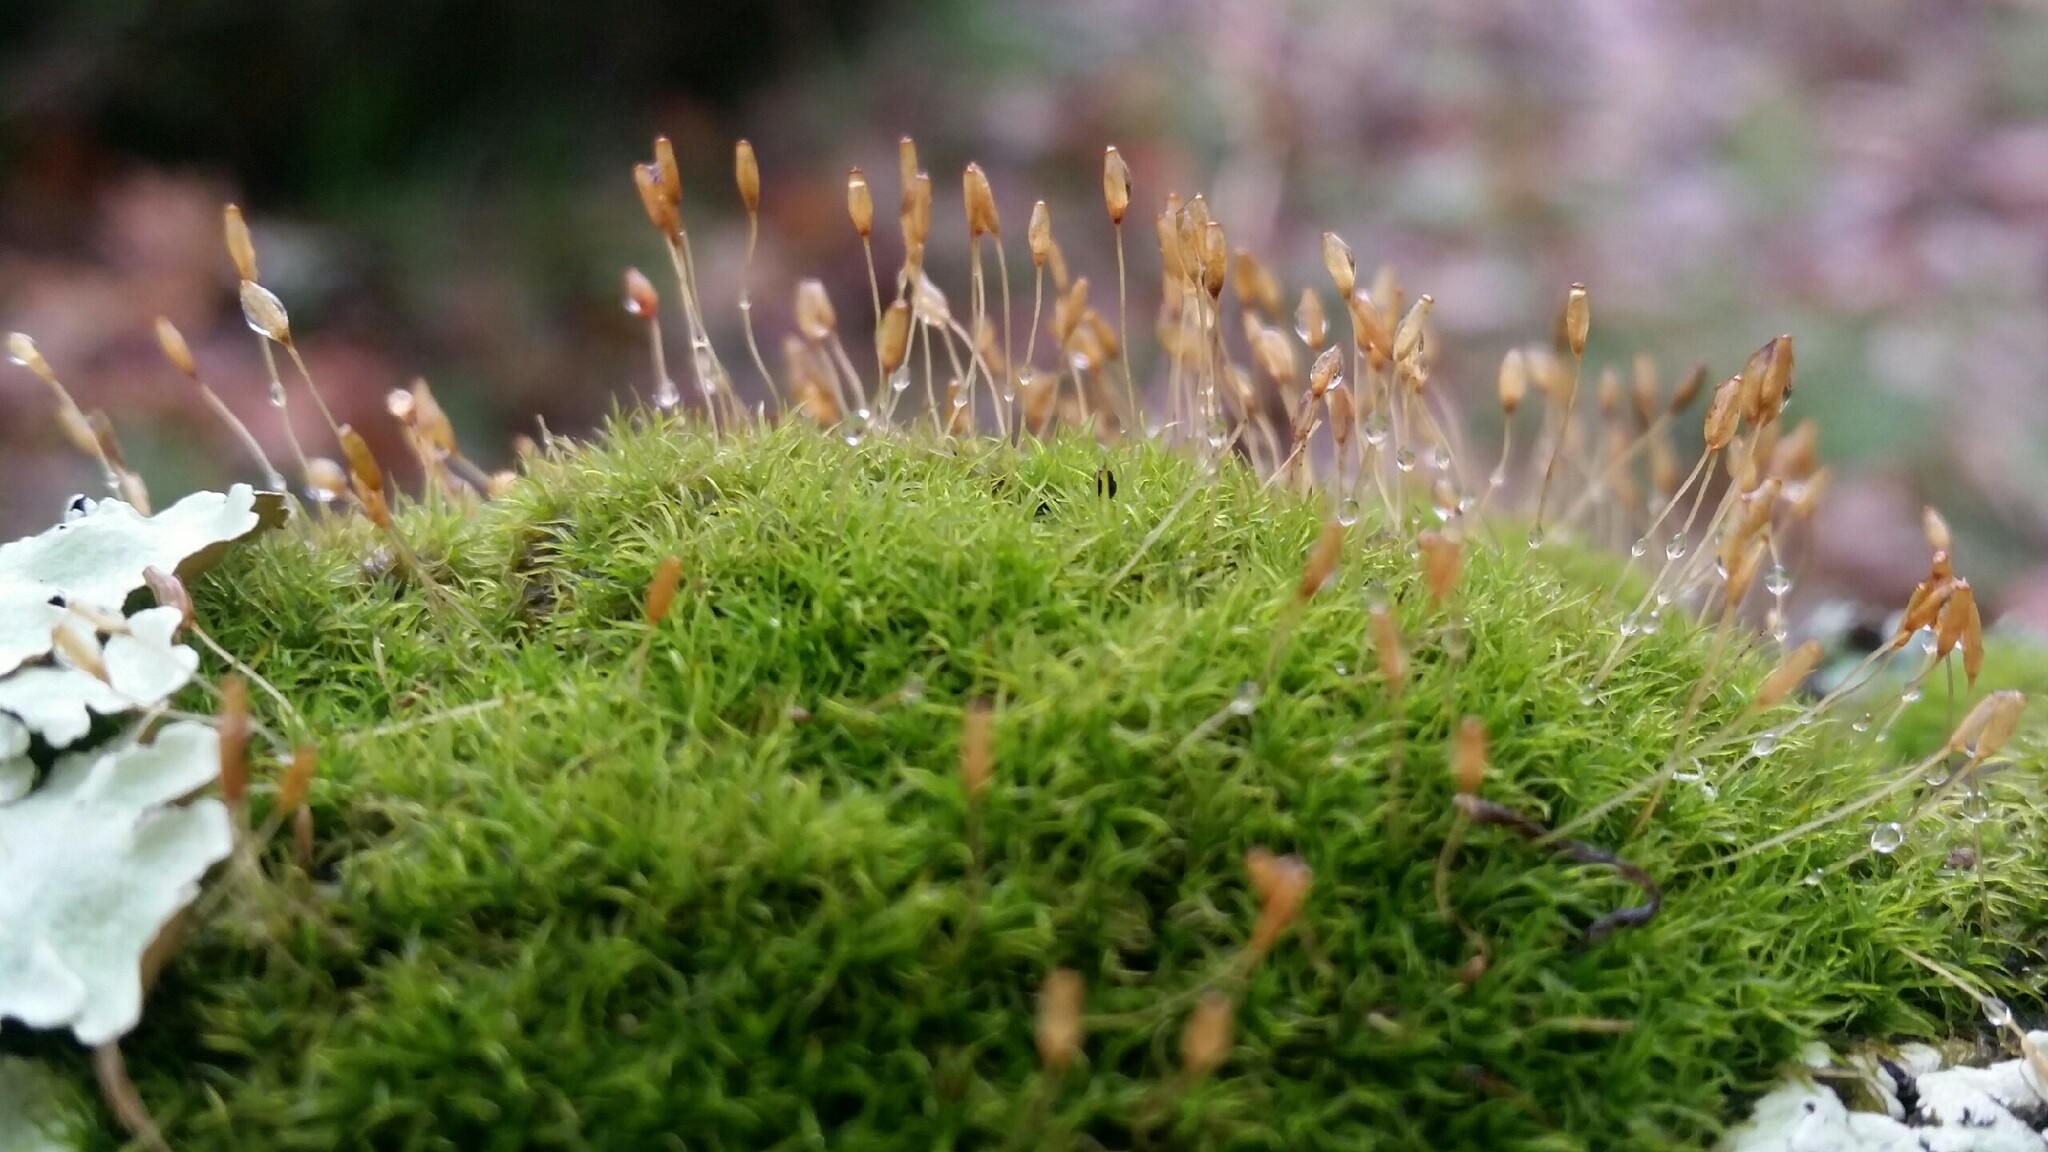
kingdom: Plantae
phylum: Bryophyta
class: Bryopsida
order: Dicranales
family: Rhabdoweisiaceae
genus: Dicranoweisia
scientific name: Dicranoweisia cirrata
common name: Common pincushion
